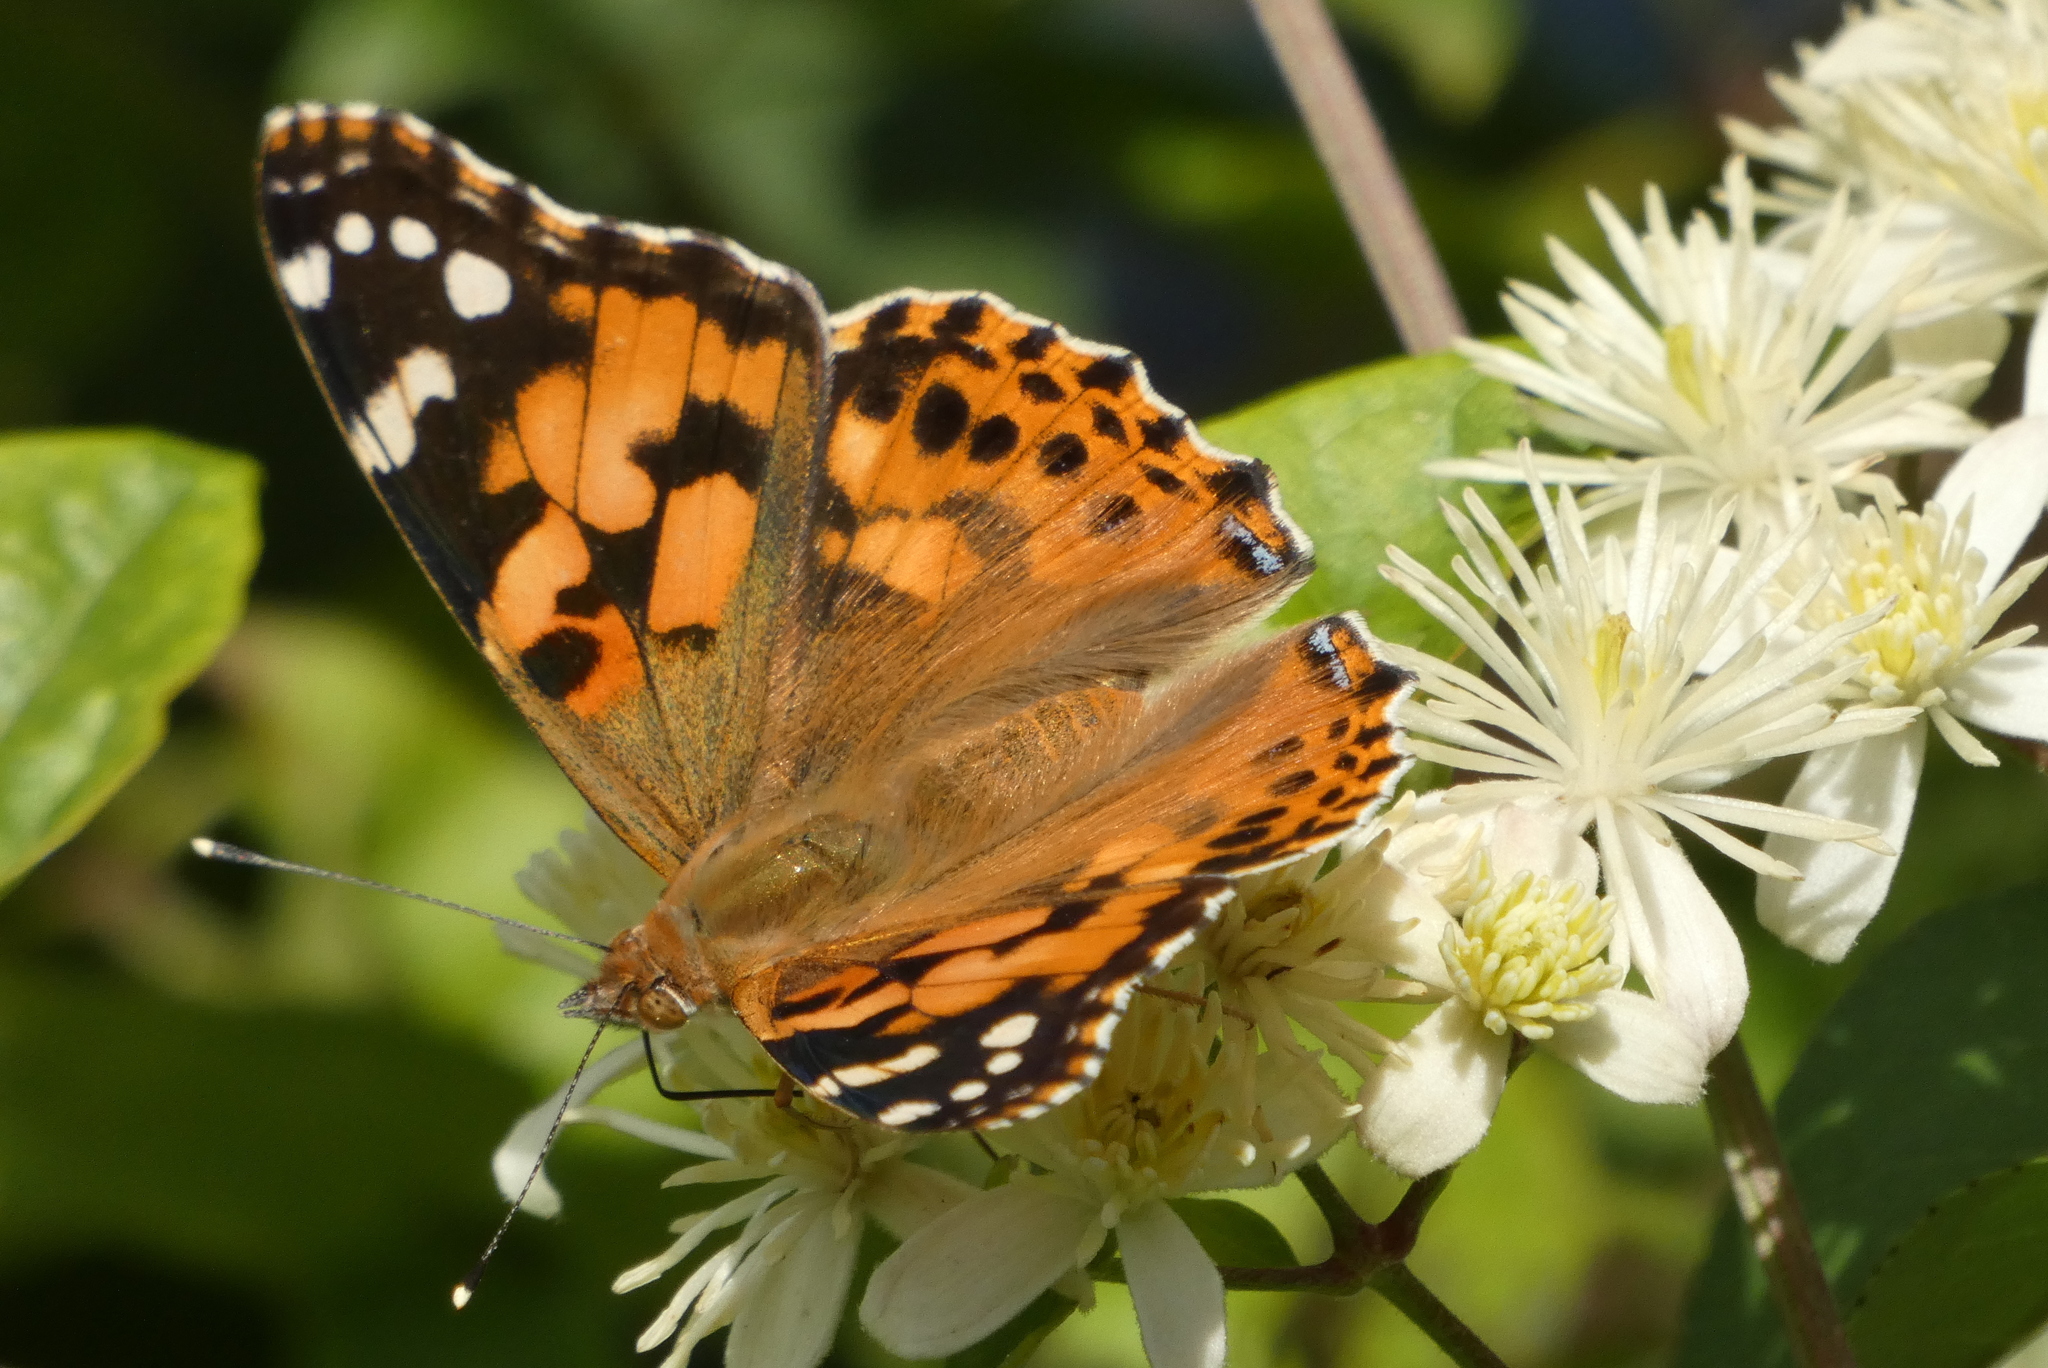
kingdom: Animalia
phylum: Arthropoda
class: Insecta
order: Lepidoptera
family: Nymphalidae
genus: Vanessa
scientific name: Vanessa cardui
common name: Painted lady
